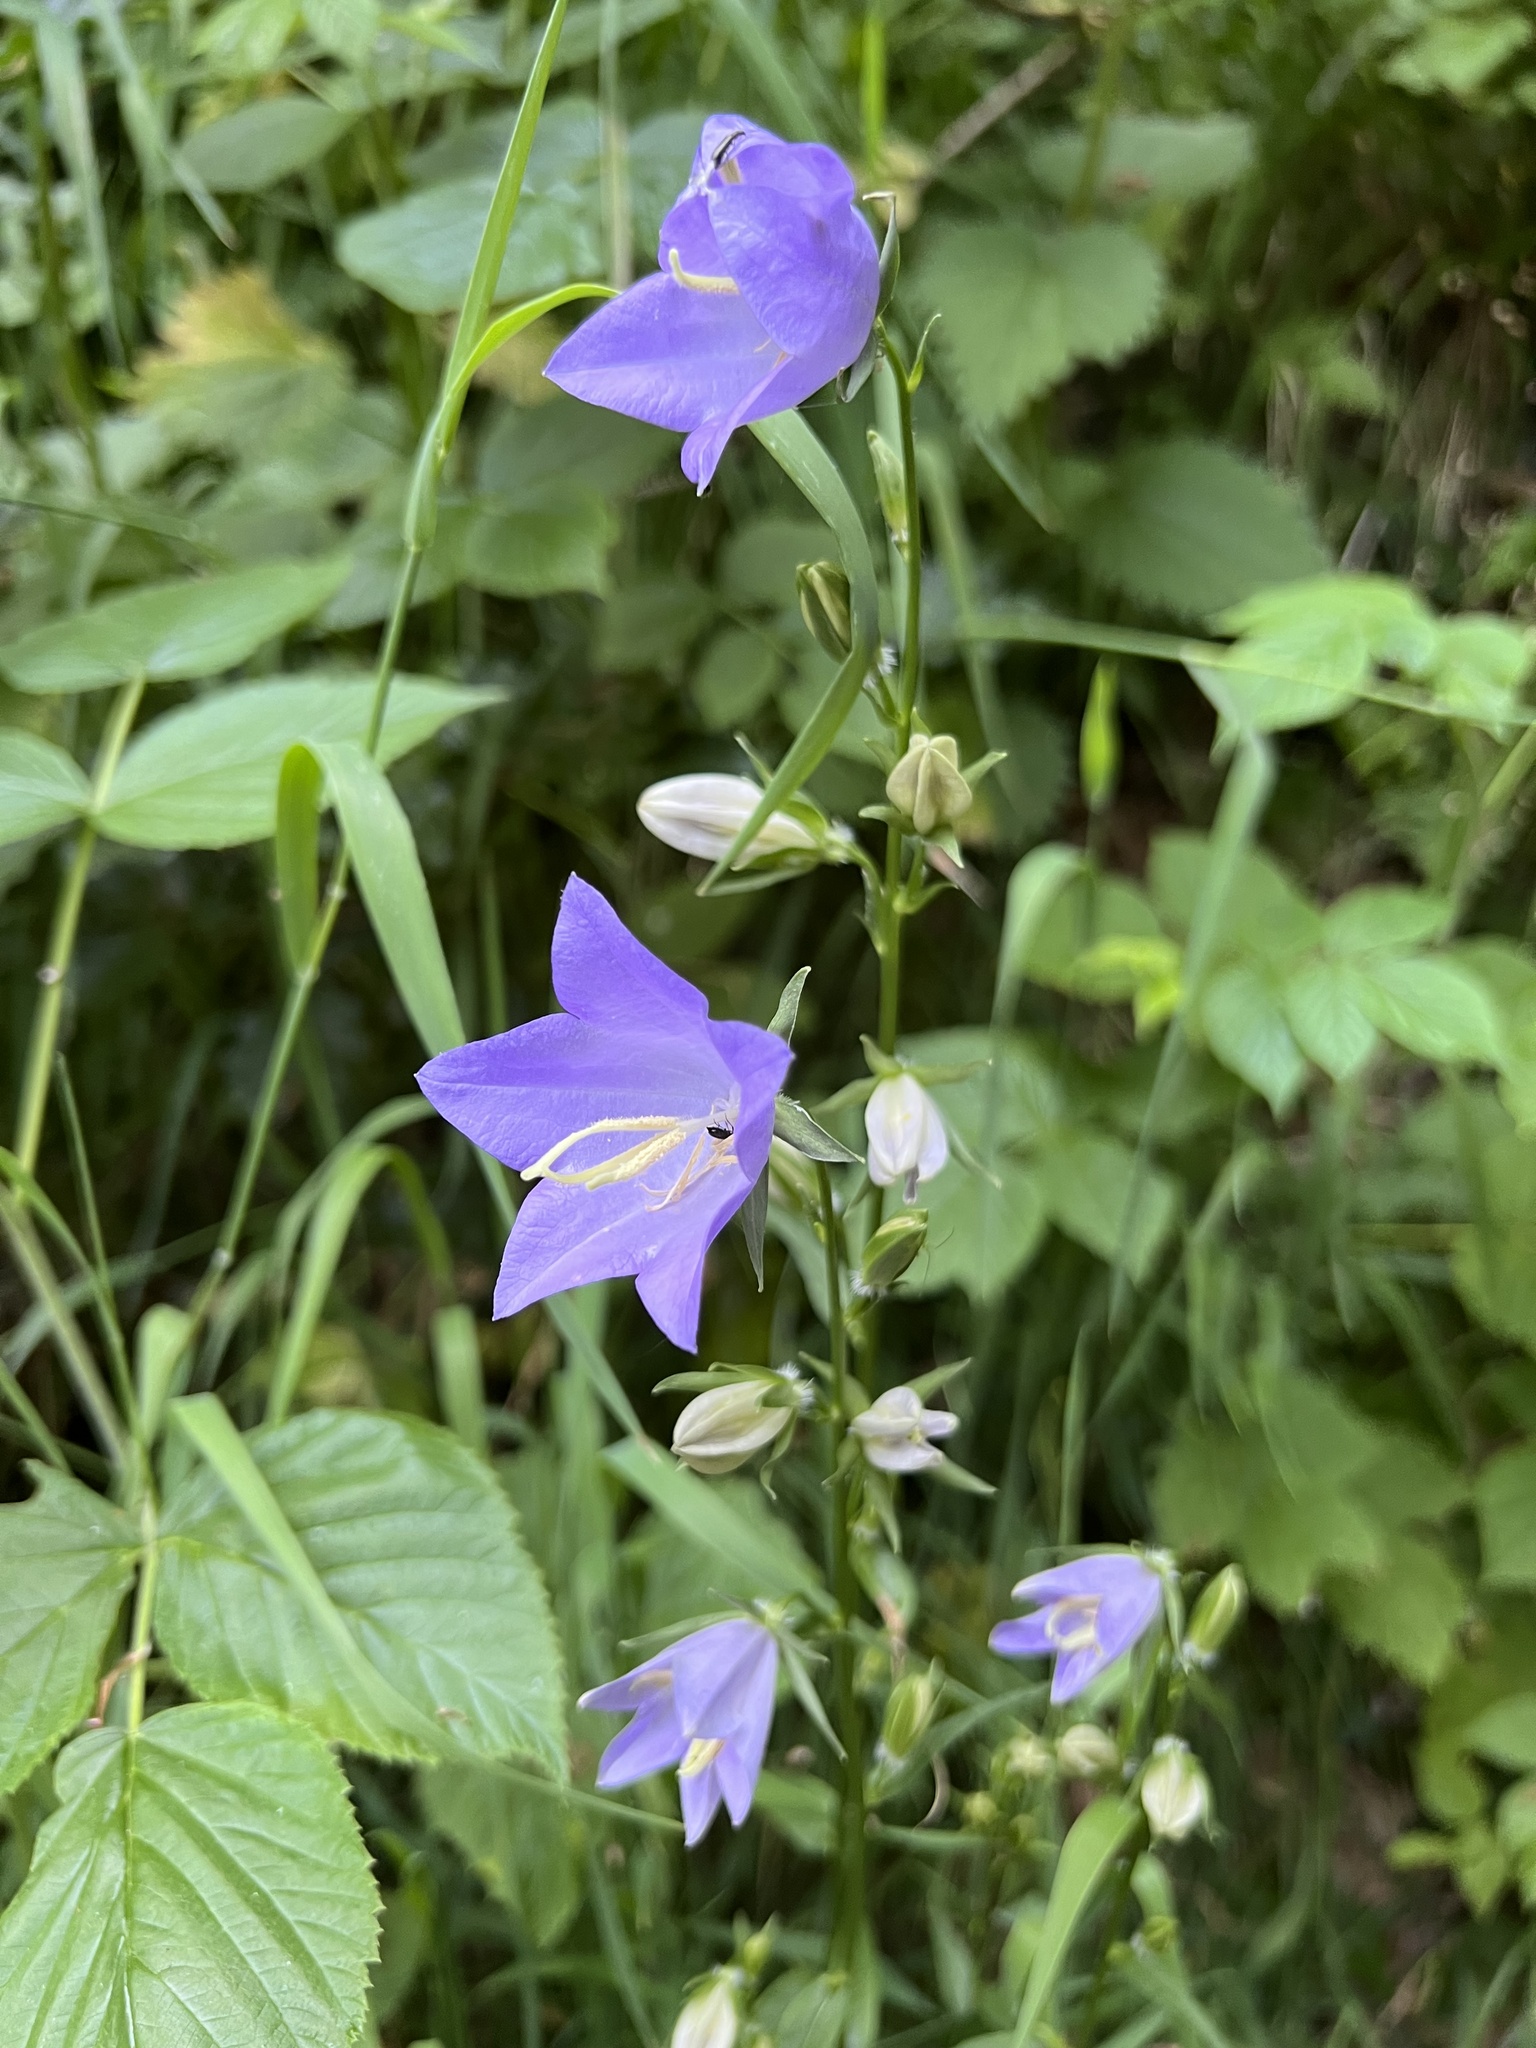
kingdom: Plantae
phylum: Tracheophyta
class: Magnoliopsida
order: Asterales
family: Campanulaceae
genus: Campanula
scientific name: Campanula persicifolia
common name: Peach-leaved bellflower
